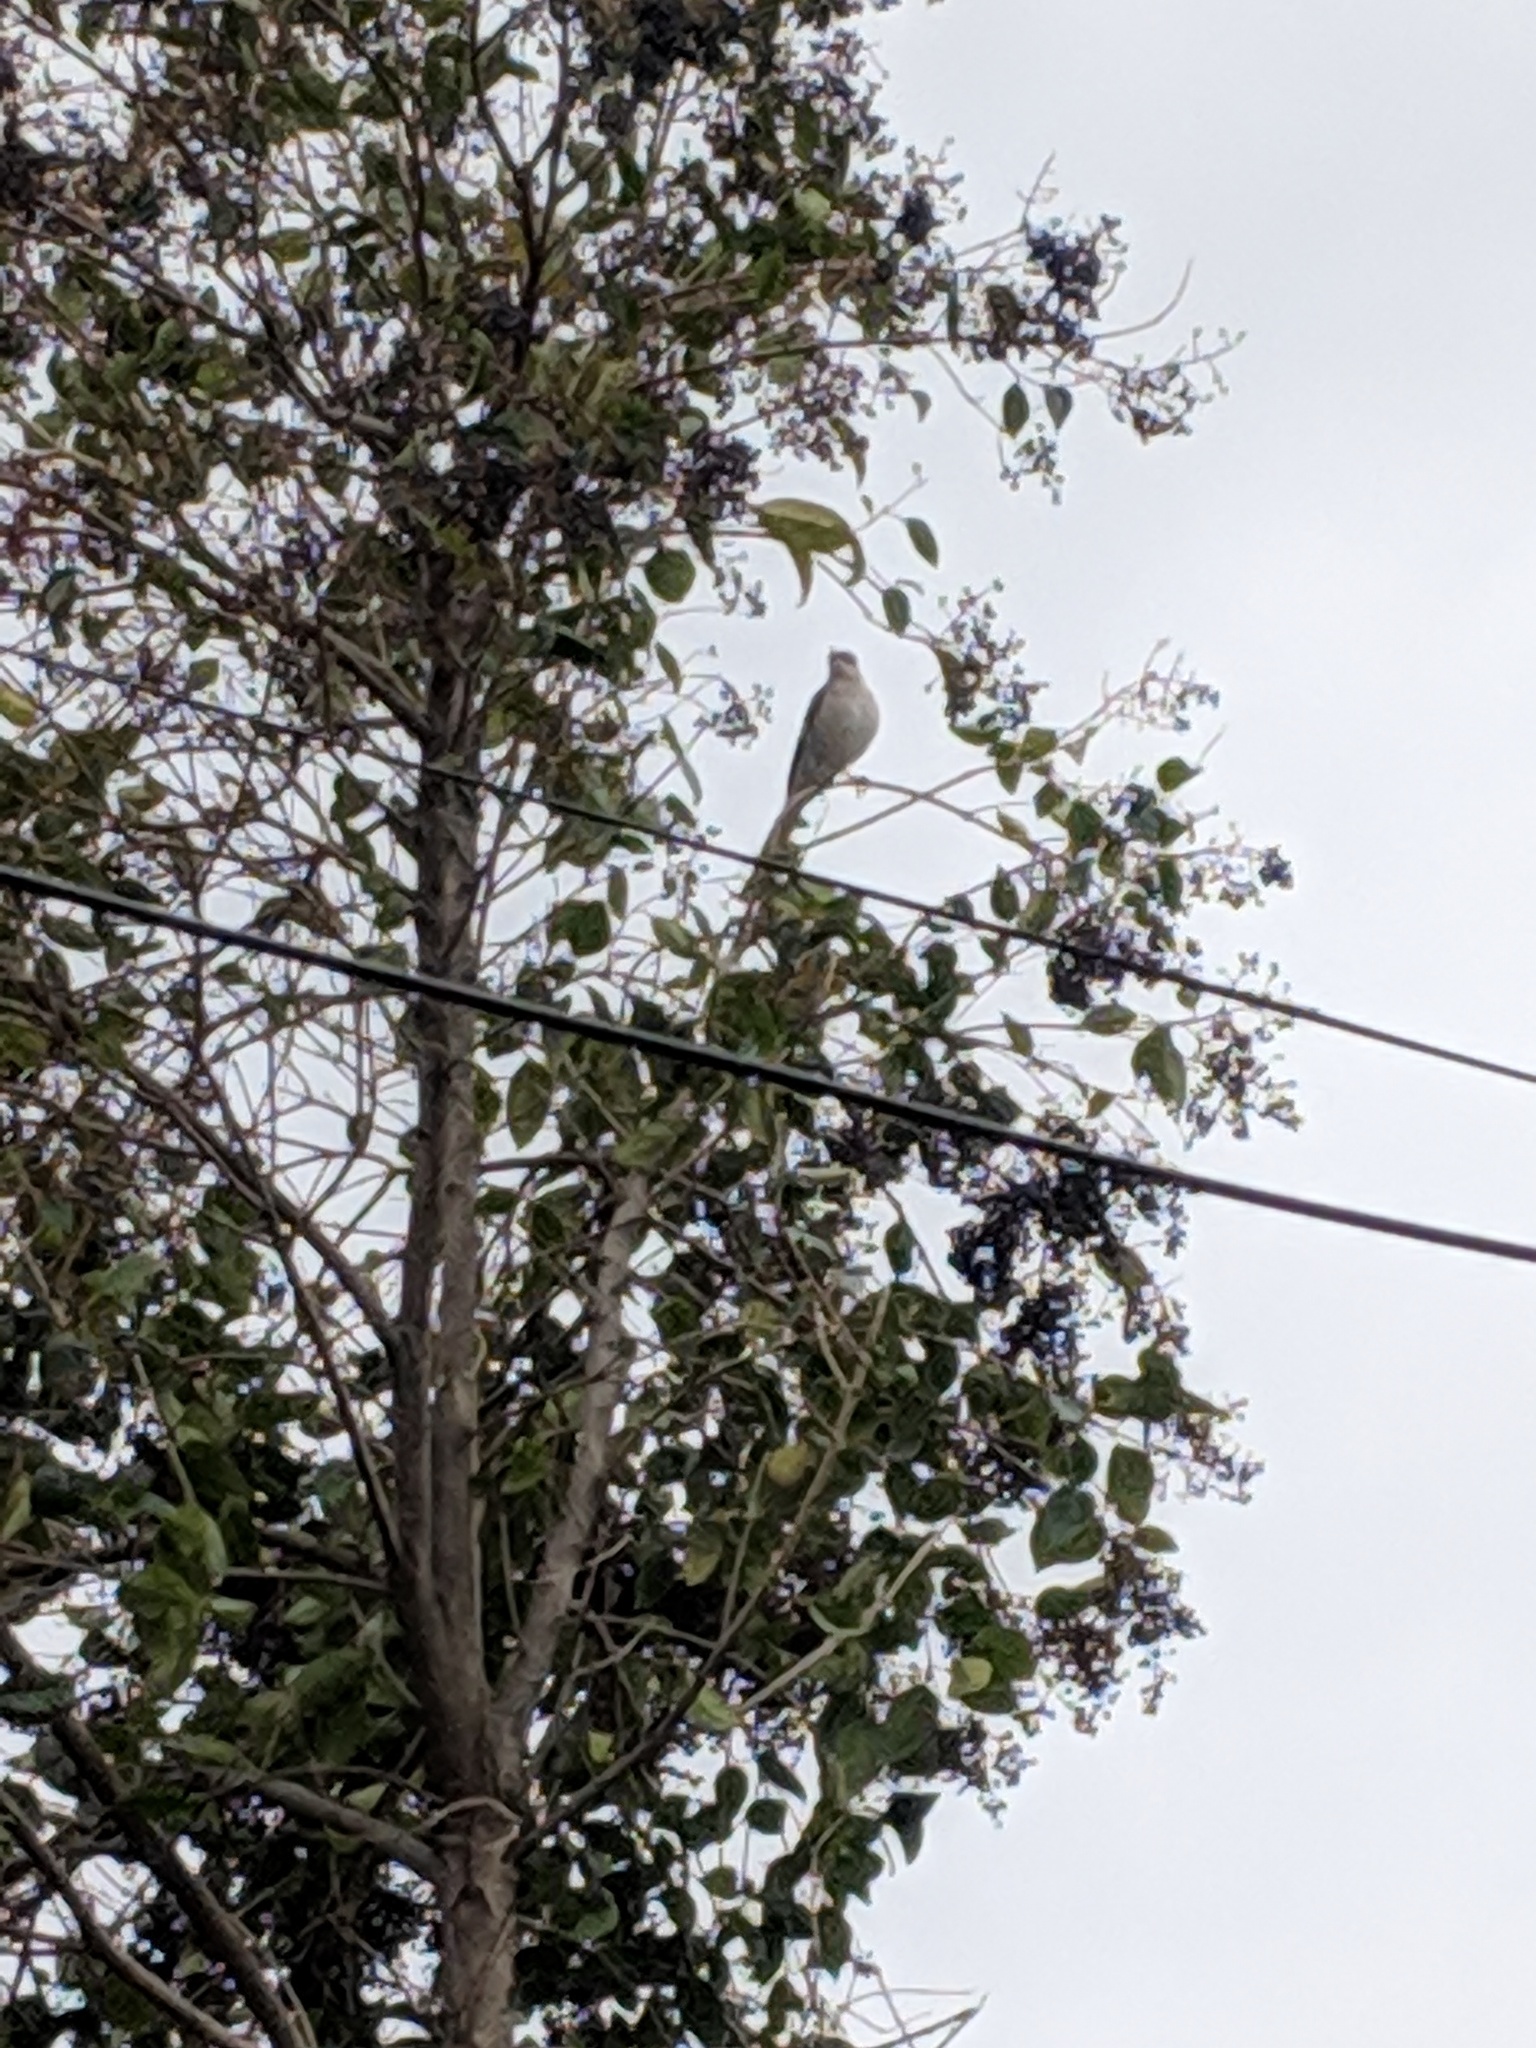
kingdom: Animalia
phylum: Chordata
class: Aves
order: Passeriformes
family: Mimidae
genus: Mimus
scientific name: Mimus polyglottos
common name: Northern mockingbird
